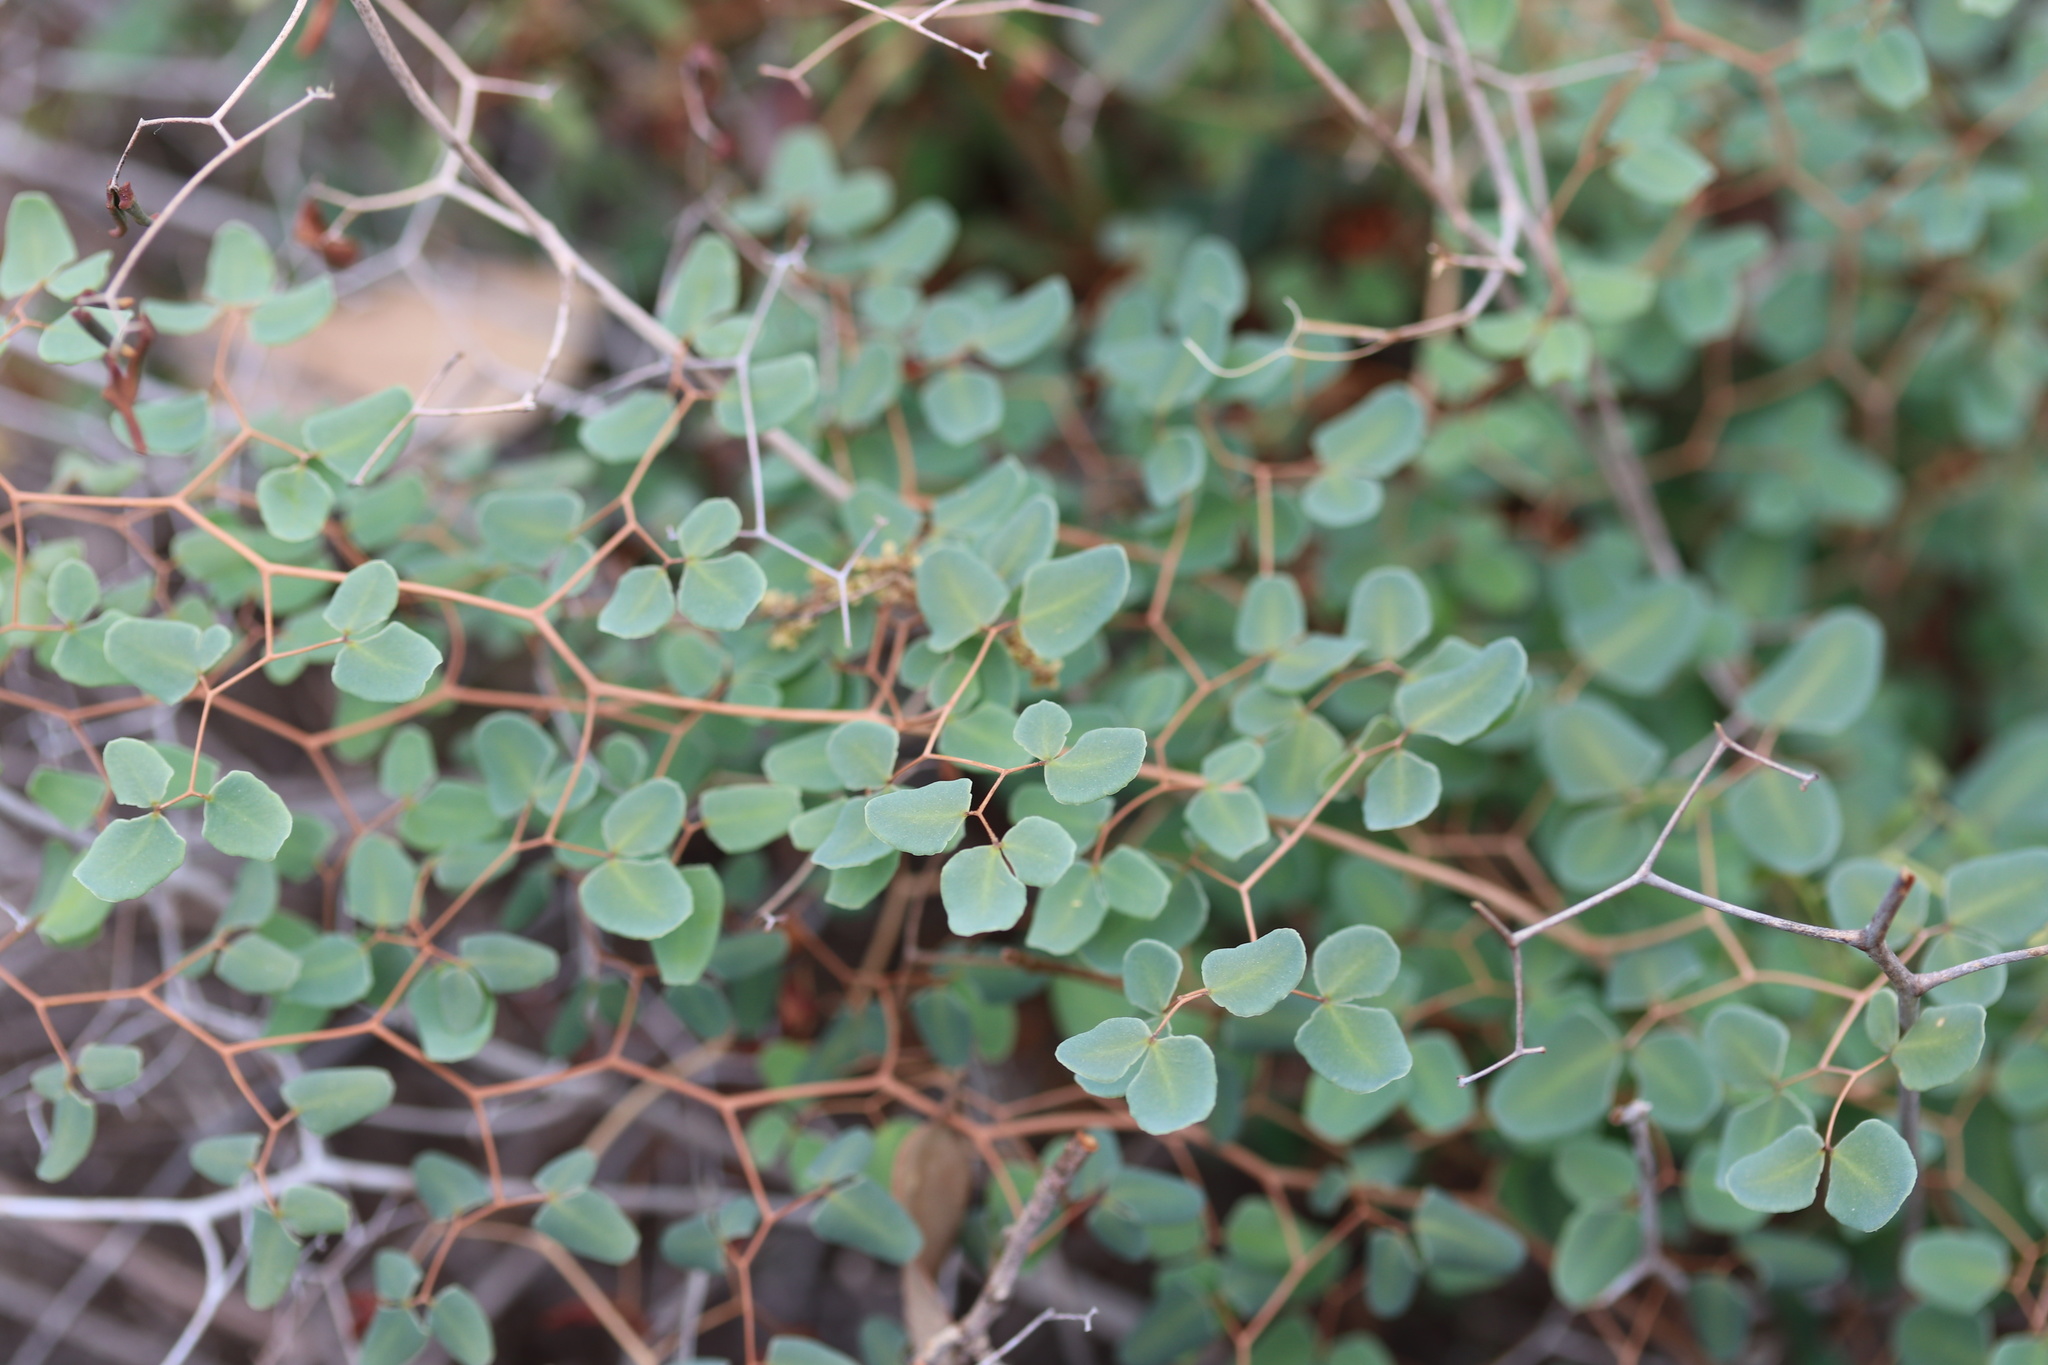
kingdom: Plantae
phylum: Tracheophyta
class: Polypodiopsida
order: Polypodiales
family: Pteridaceae
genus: Pellaea
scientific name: Pellaea ovata
